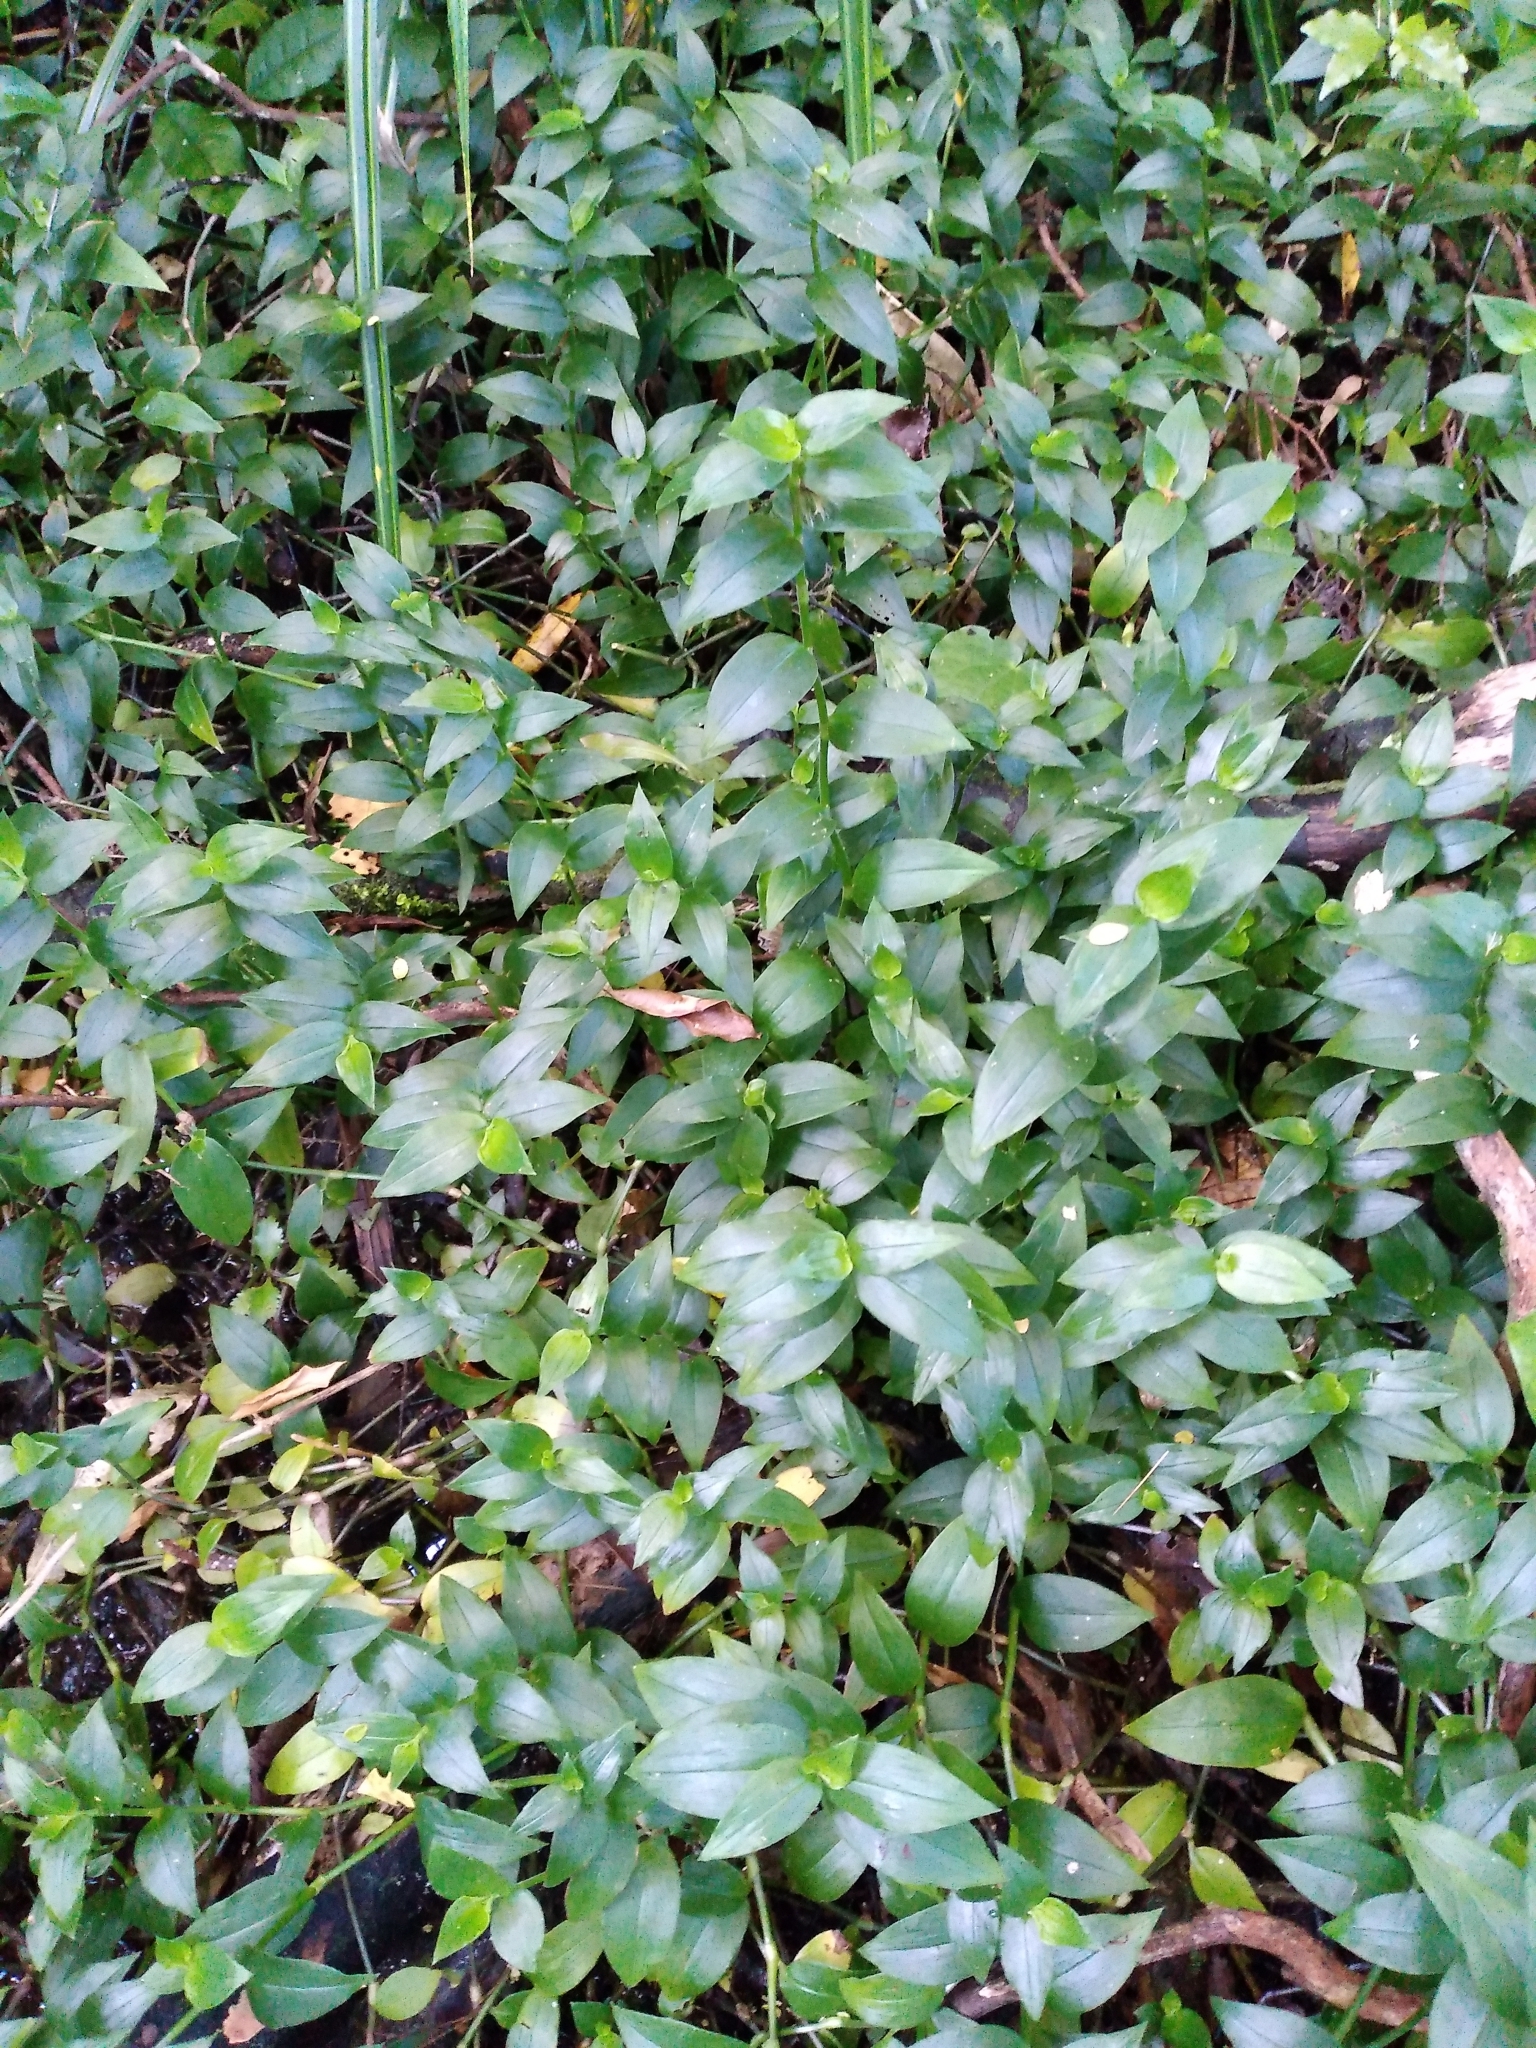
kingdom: Plantae
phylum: Tracheophyta
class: Liliopsida
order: Commelinales
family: Commelinaceae
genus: Tradescantia
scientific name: Tradescantia fluminensis
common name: Wandering-jew
